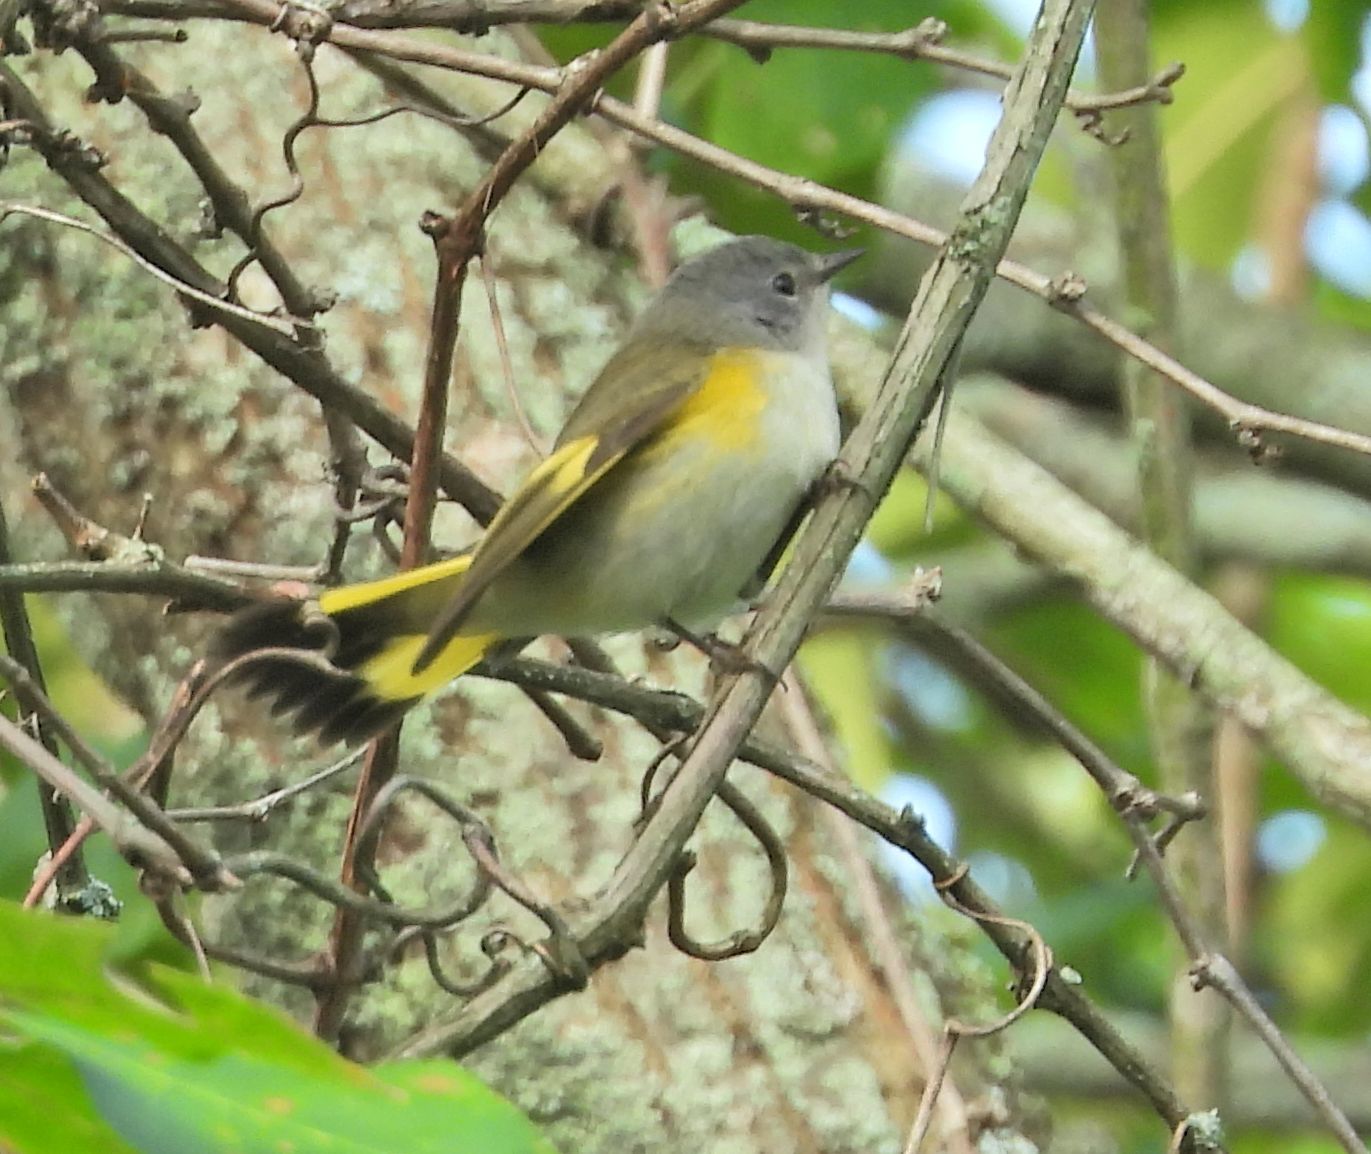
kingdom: Animalia
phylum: Chordata
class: Aves
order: Passeriformes
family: Parulidae
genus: Setophaga
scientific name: Setophaga ruticilla
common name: American redstart
